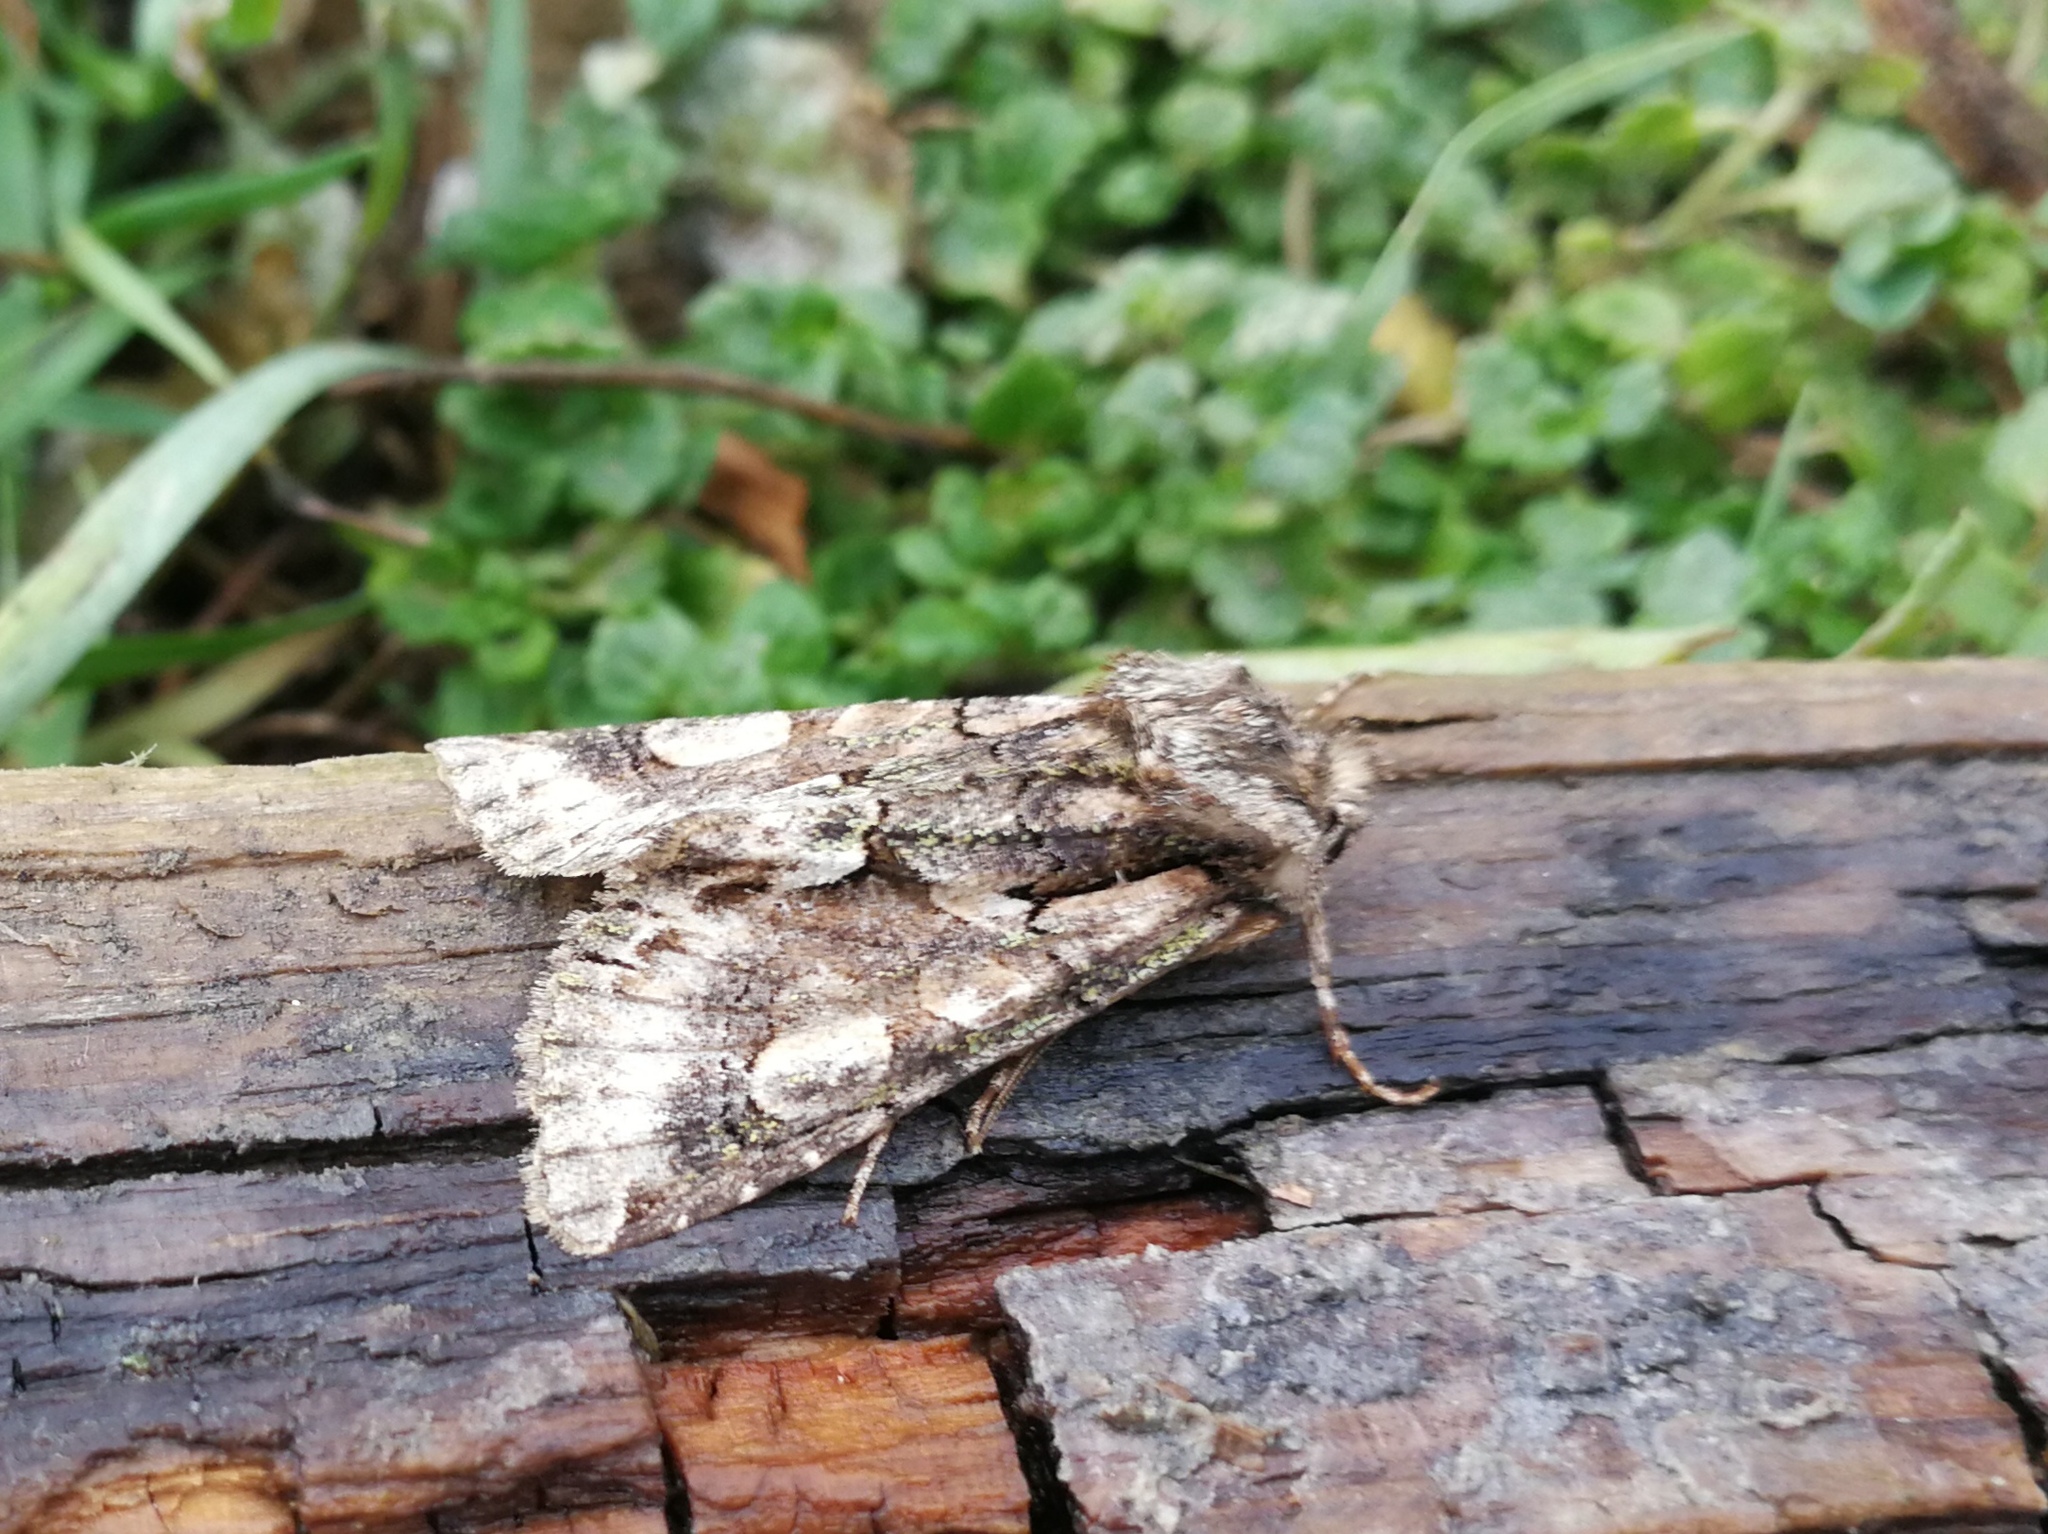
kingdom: Animalia
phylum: Arthropoda
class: Insecta
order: Lepidoptera
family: Noctuidae
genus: Allophyes
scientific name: Allophyes alfaroi
